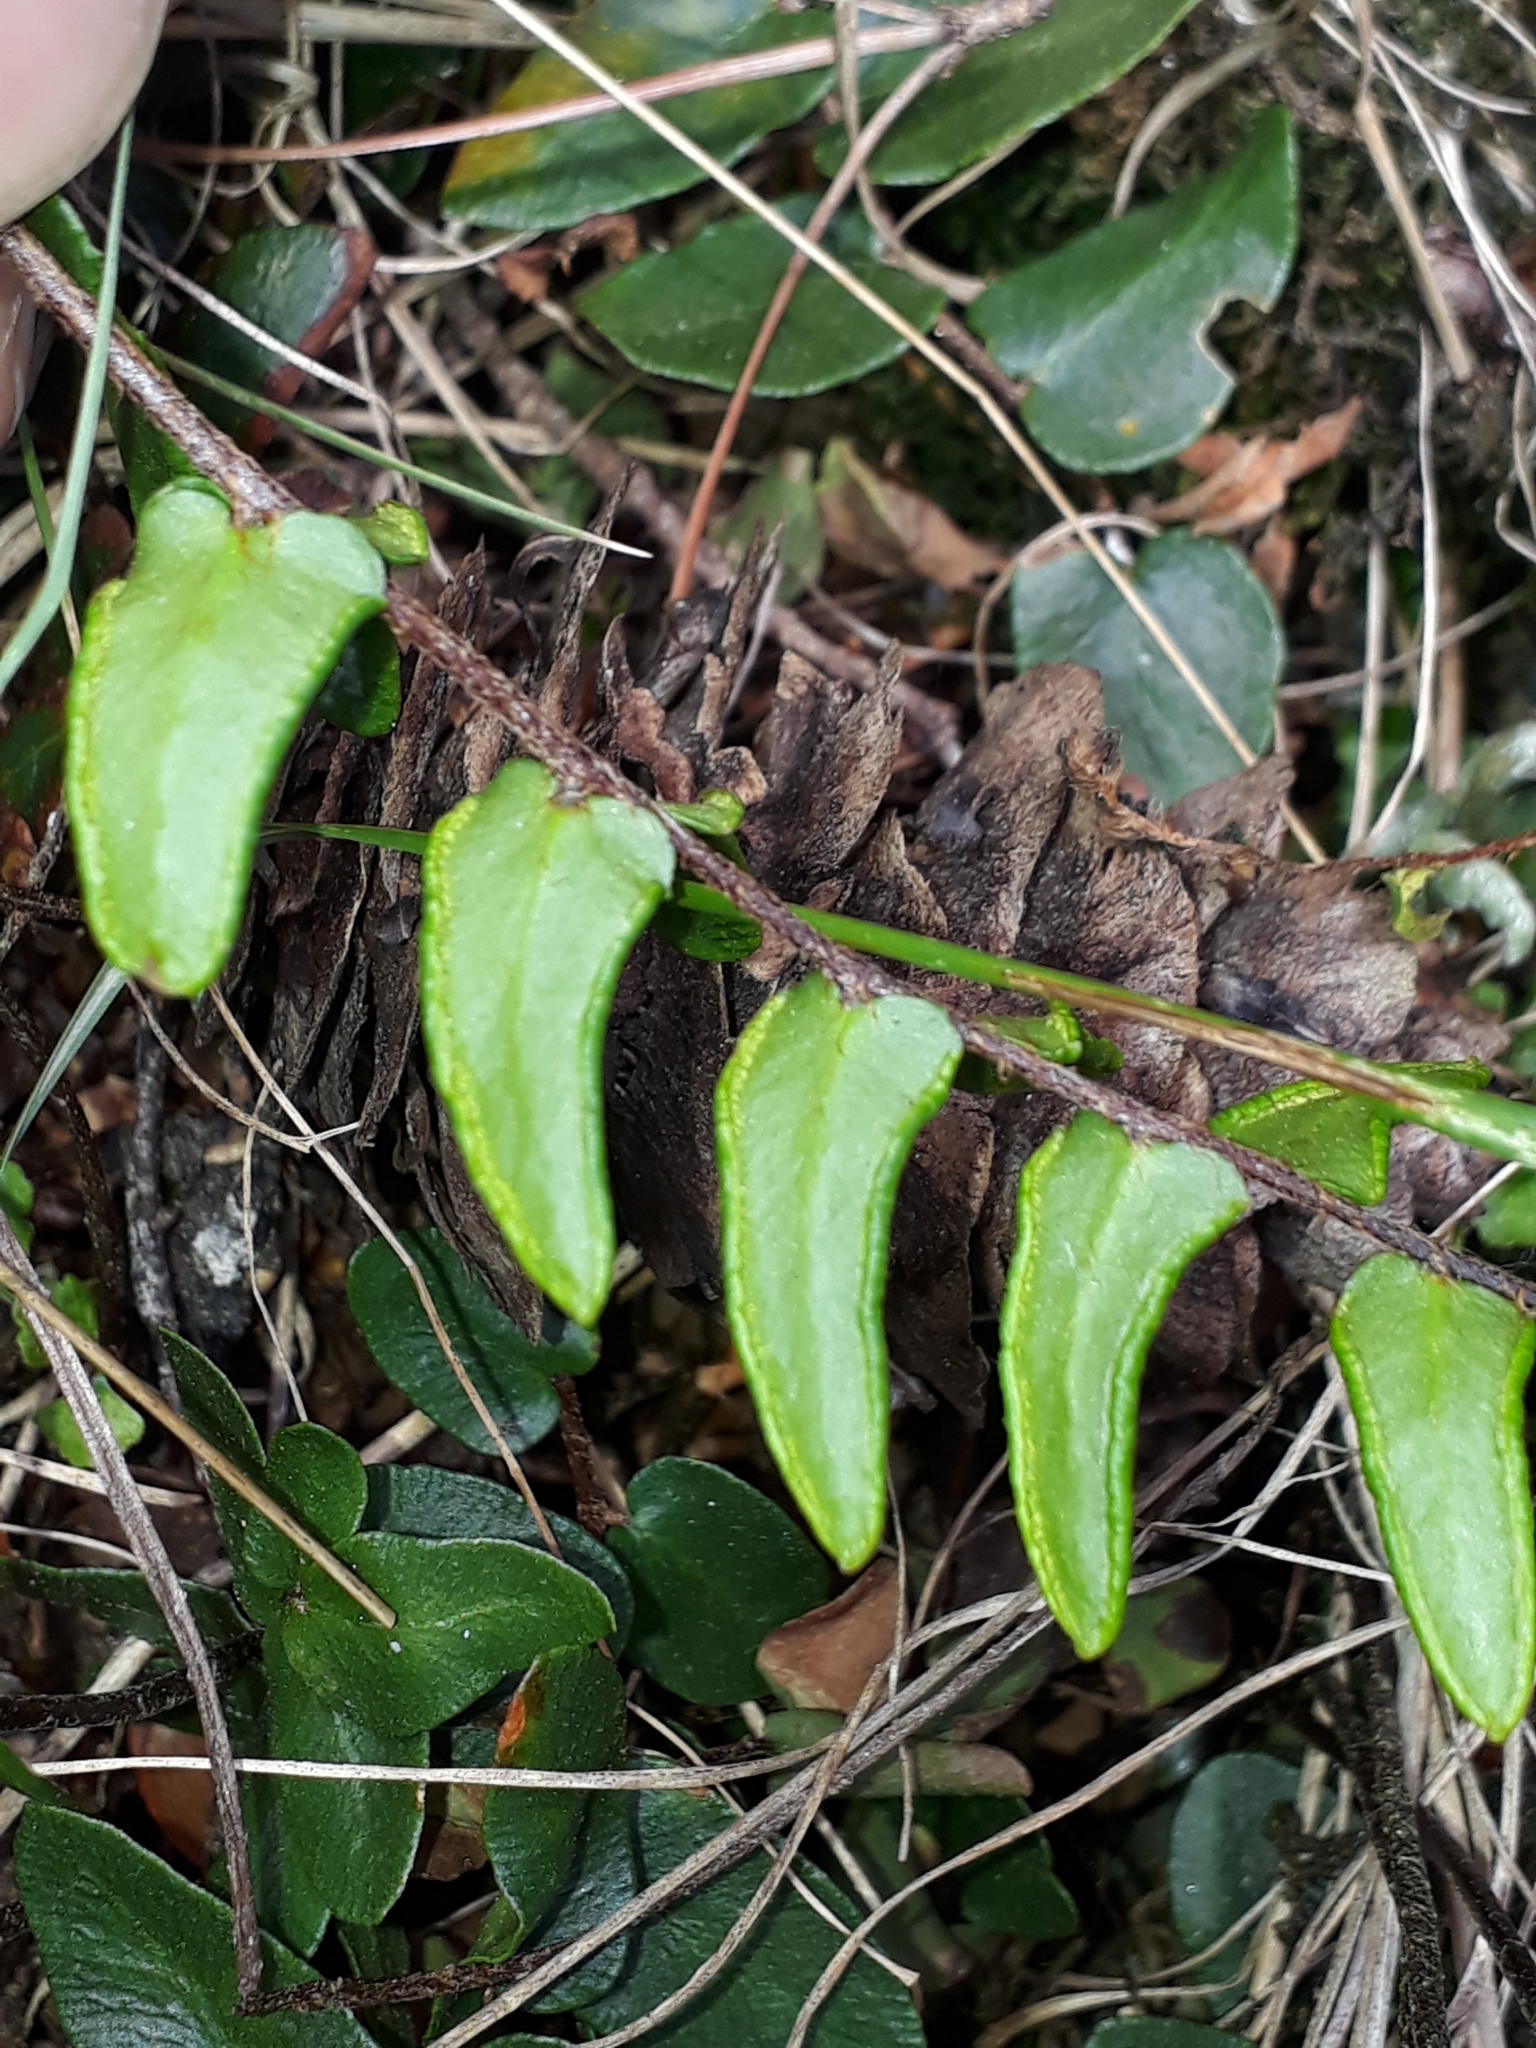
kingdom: Plantae
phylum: Tracheophyta
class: Polypodiopsida
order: Polypodiales
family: Pteridaceae
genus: Pellaea
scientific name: Pellaea calidirupium
